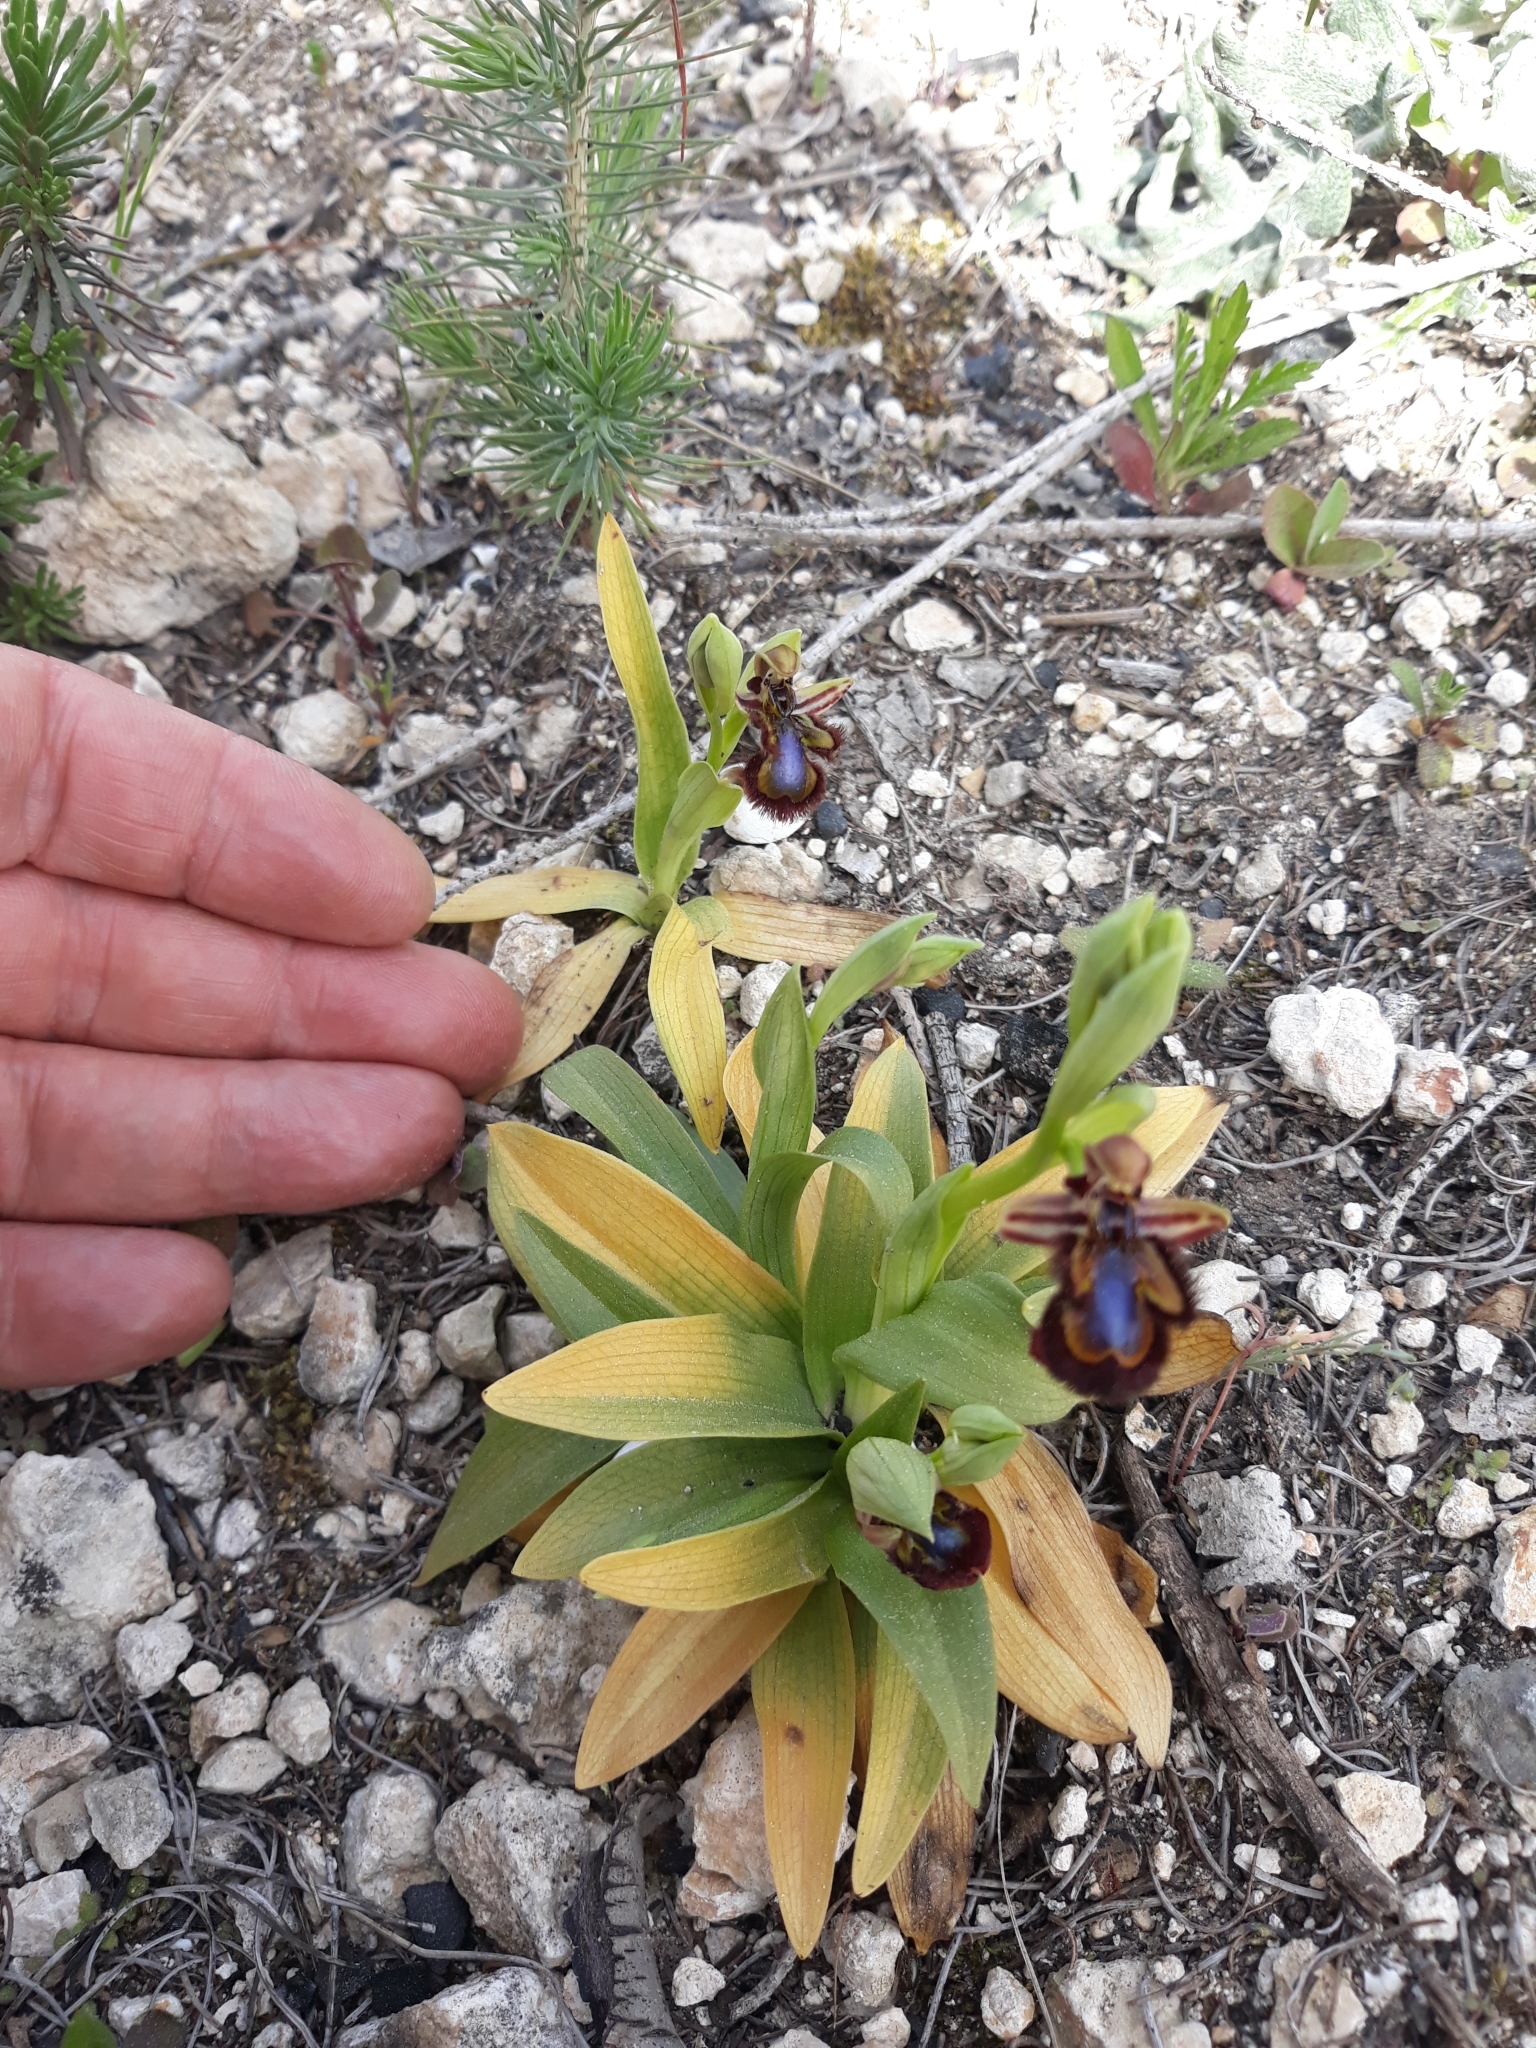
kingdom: Plantae
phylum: Tracheophyta
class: Liliopsida
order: Asparagales
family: Orchidaceae
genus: Ophrys
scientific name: Ophrys speculum
